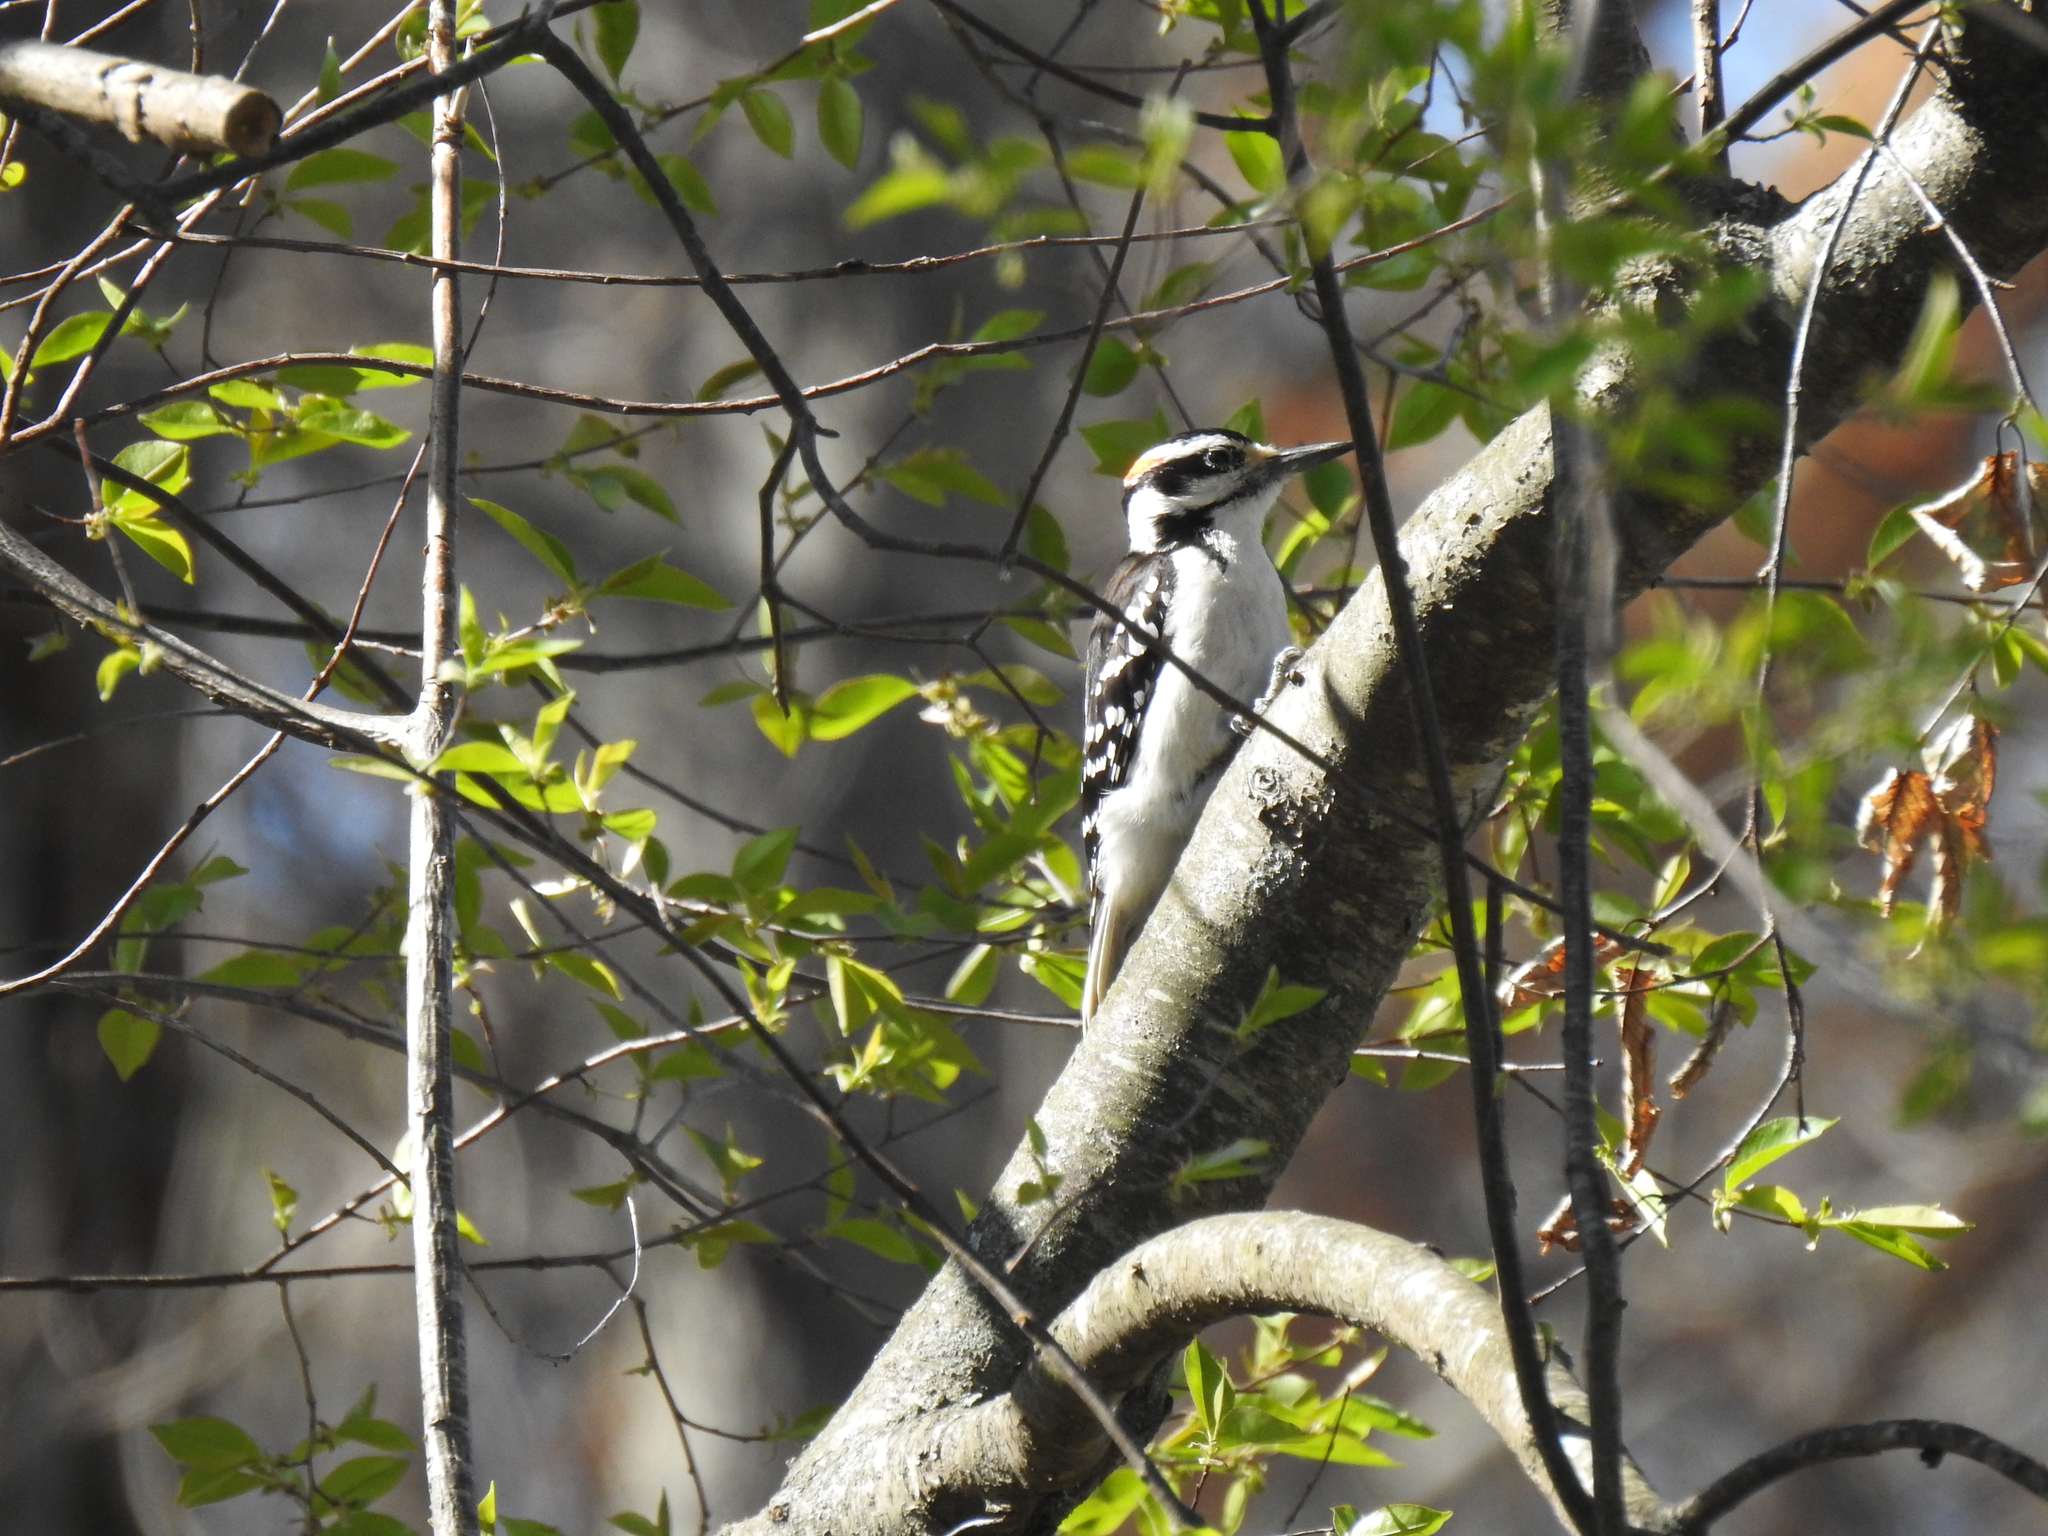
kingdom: Animalia
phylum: Chordata
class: Aves
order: Piciformes
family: Picidae
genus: Leuconotopicus
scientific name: Leuconotopicus villosus
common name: Hairy woodpecker
